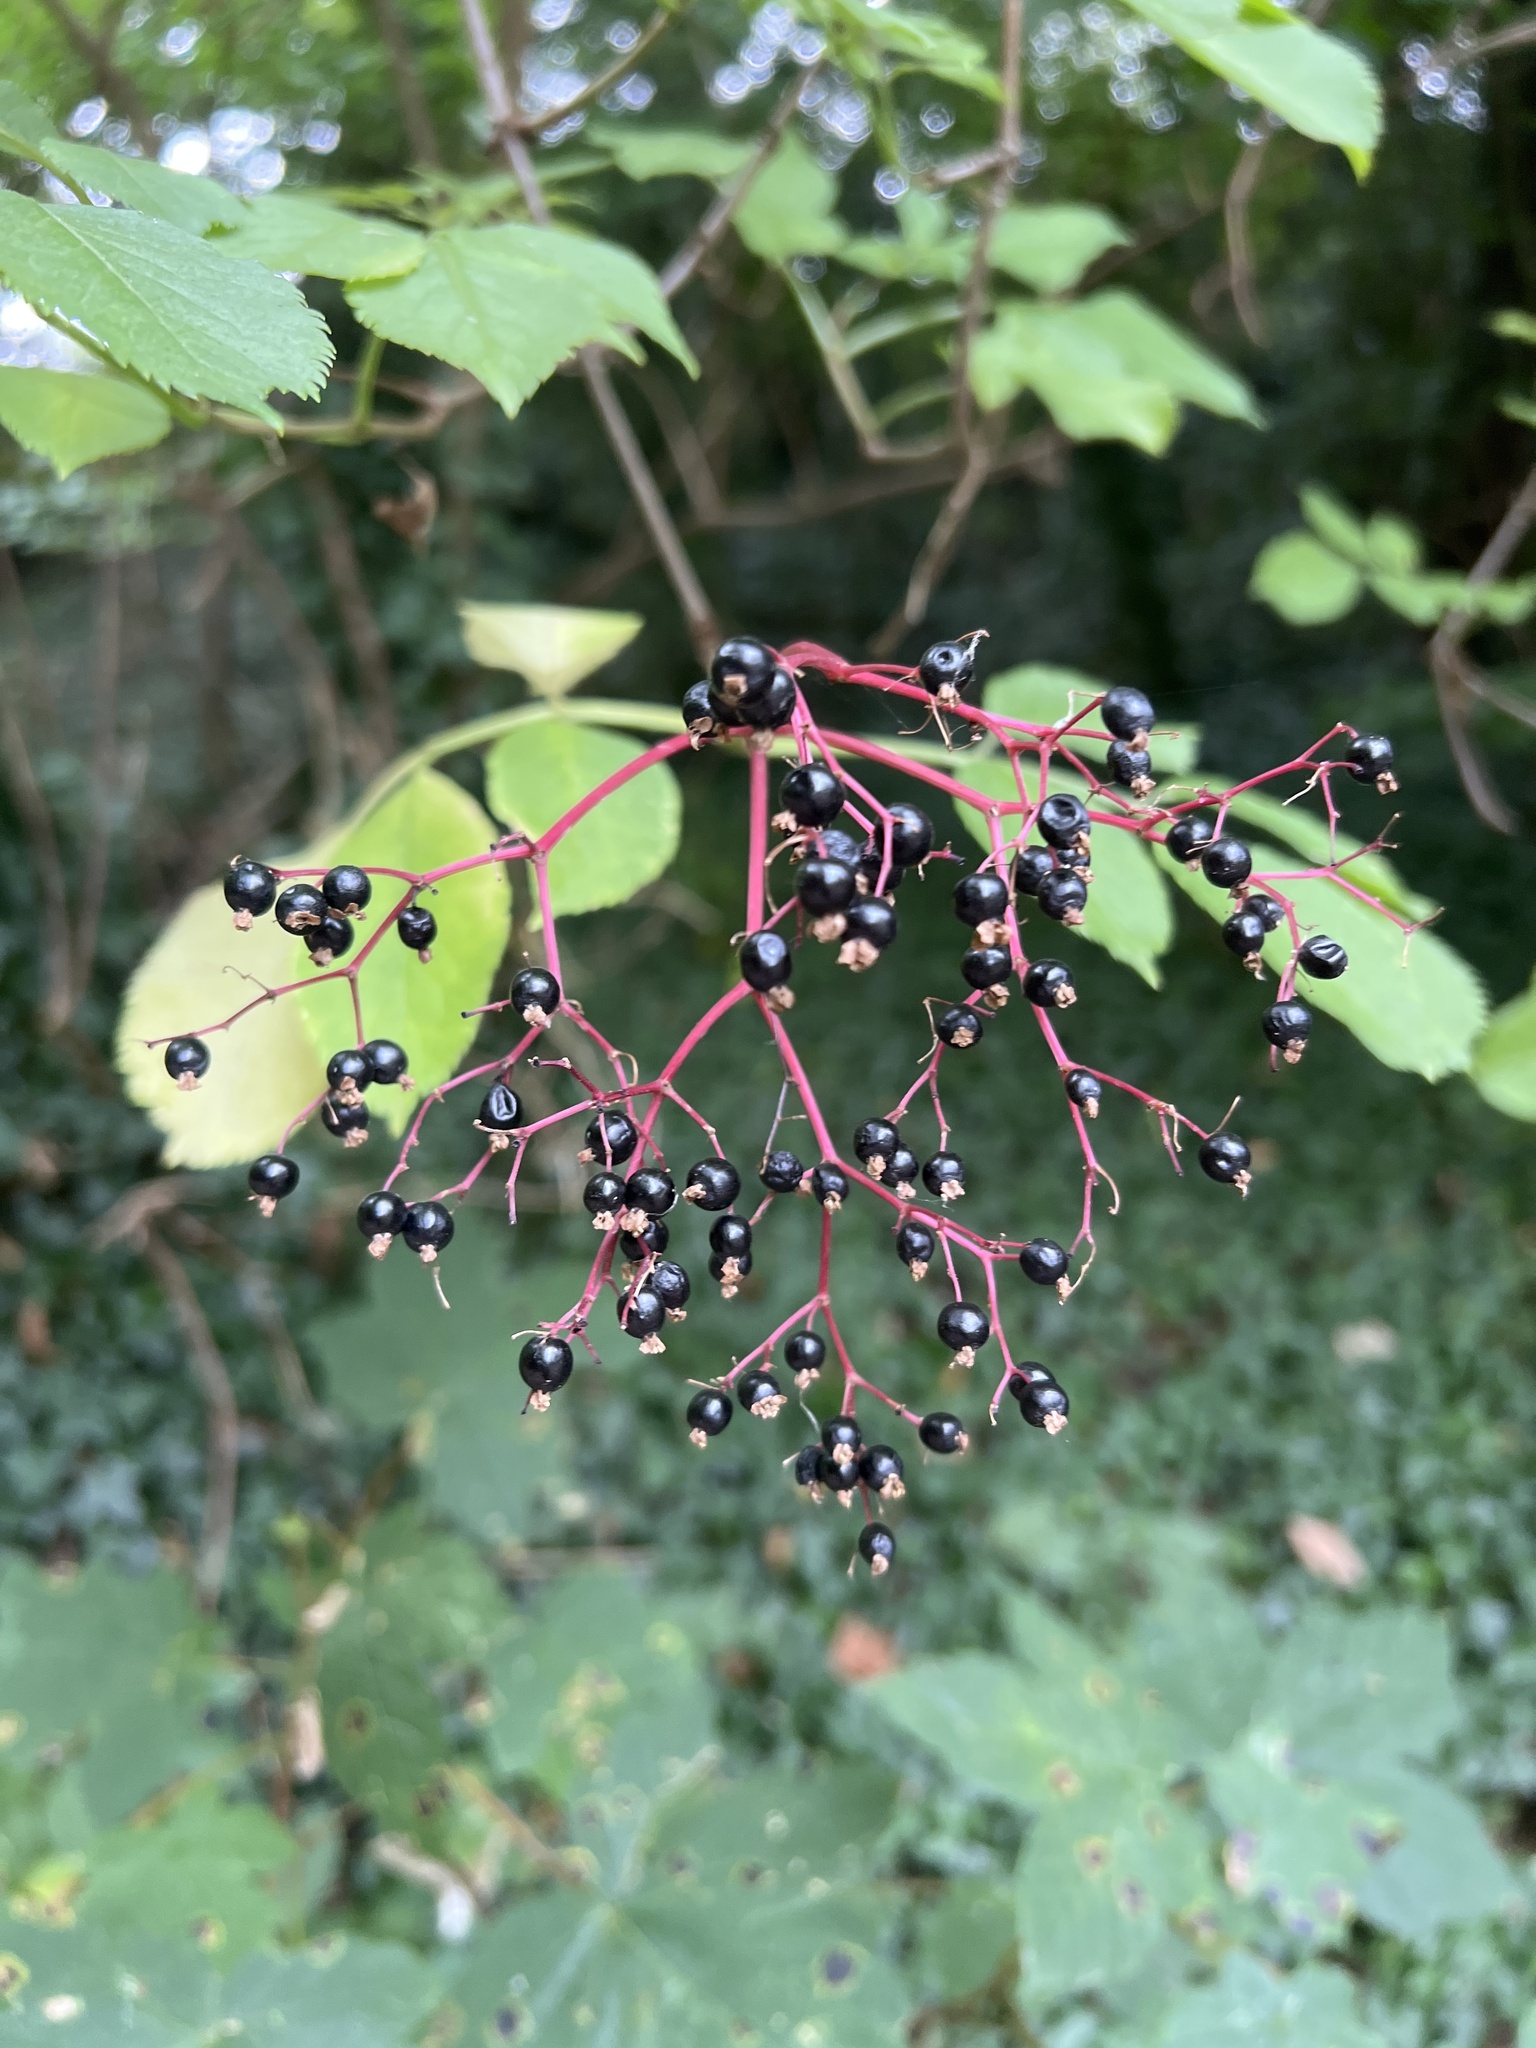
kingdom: Plantae
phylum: Tracheophyta
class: Magnoliopsida
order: Dipsacales
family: Viburnaceae
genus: Sambucus
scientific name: Sambucus nigra
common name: Elder
